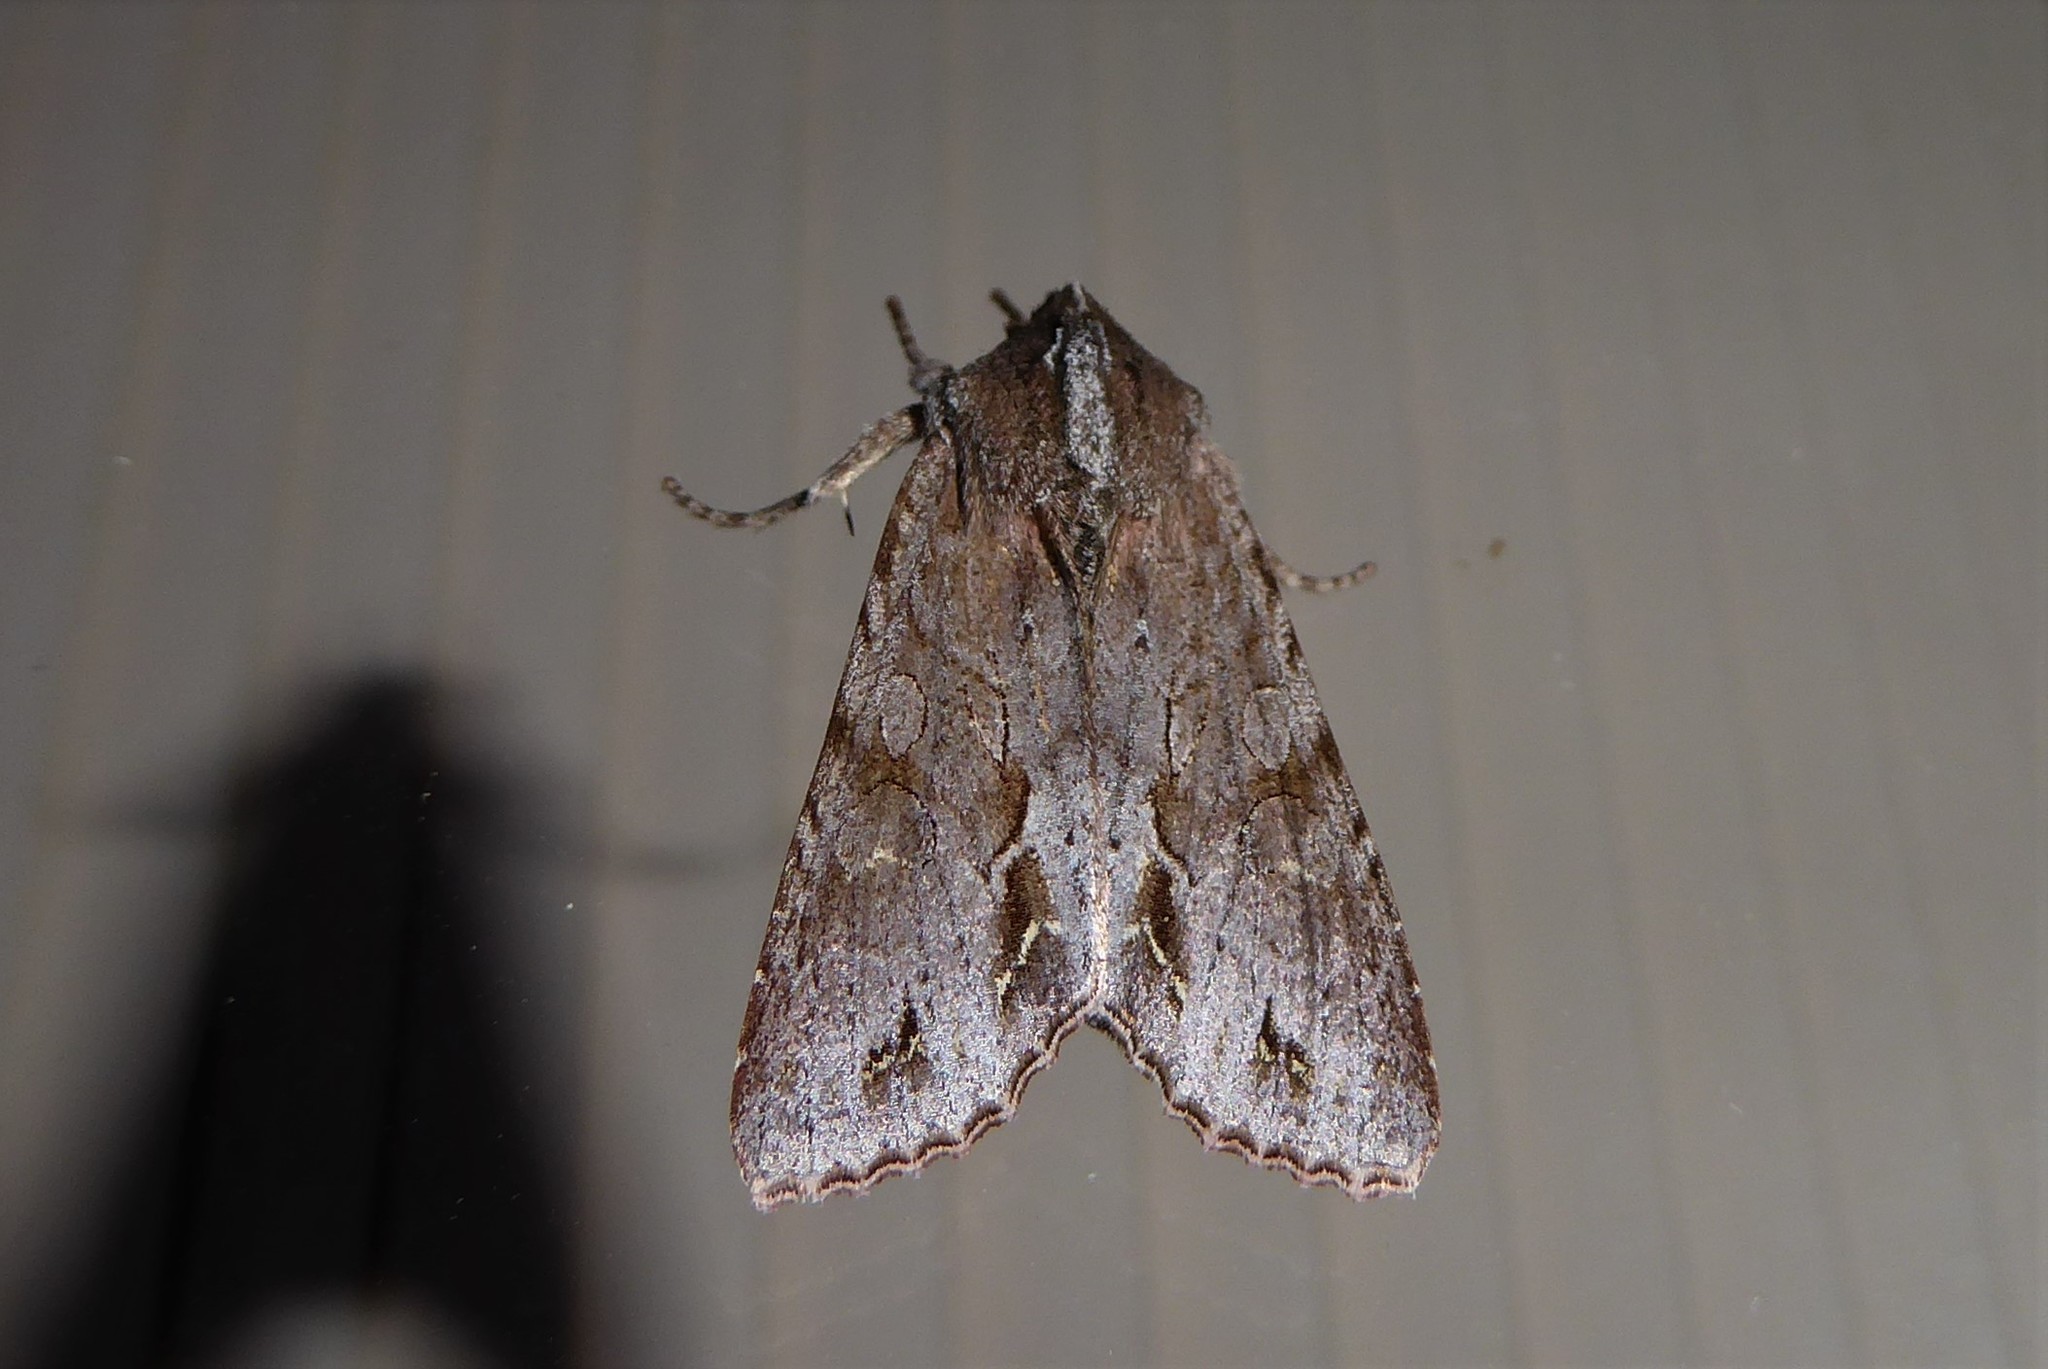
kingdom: Animalia
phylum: Arthropoda
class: Insecta
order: Lepidoptera
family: Noctuidae
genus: Ichneutica
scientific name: Ichneutica
